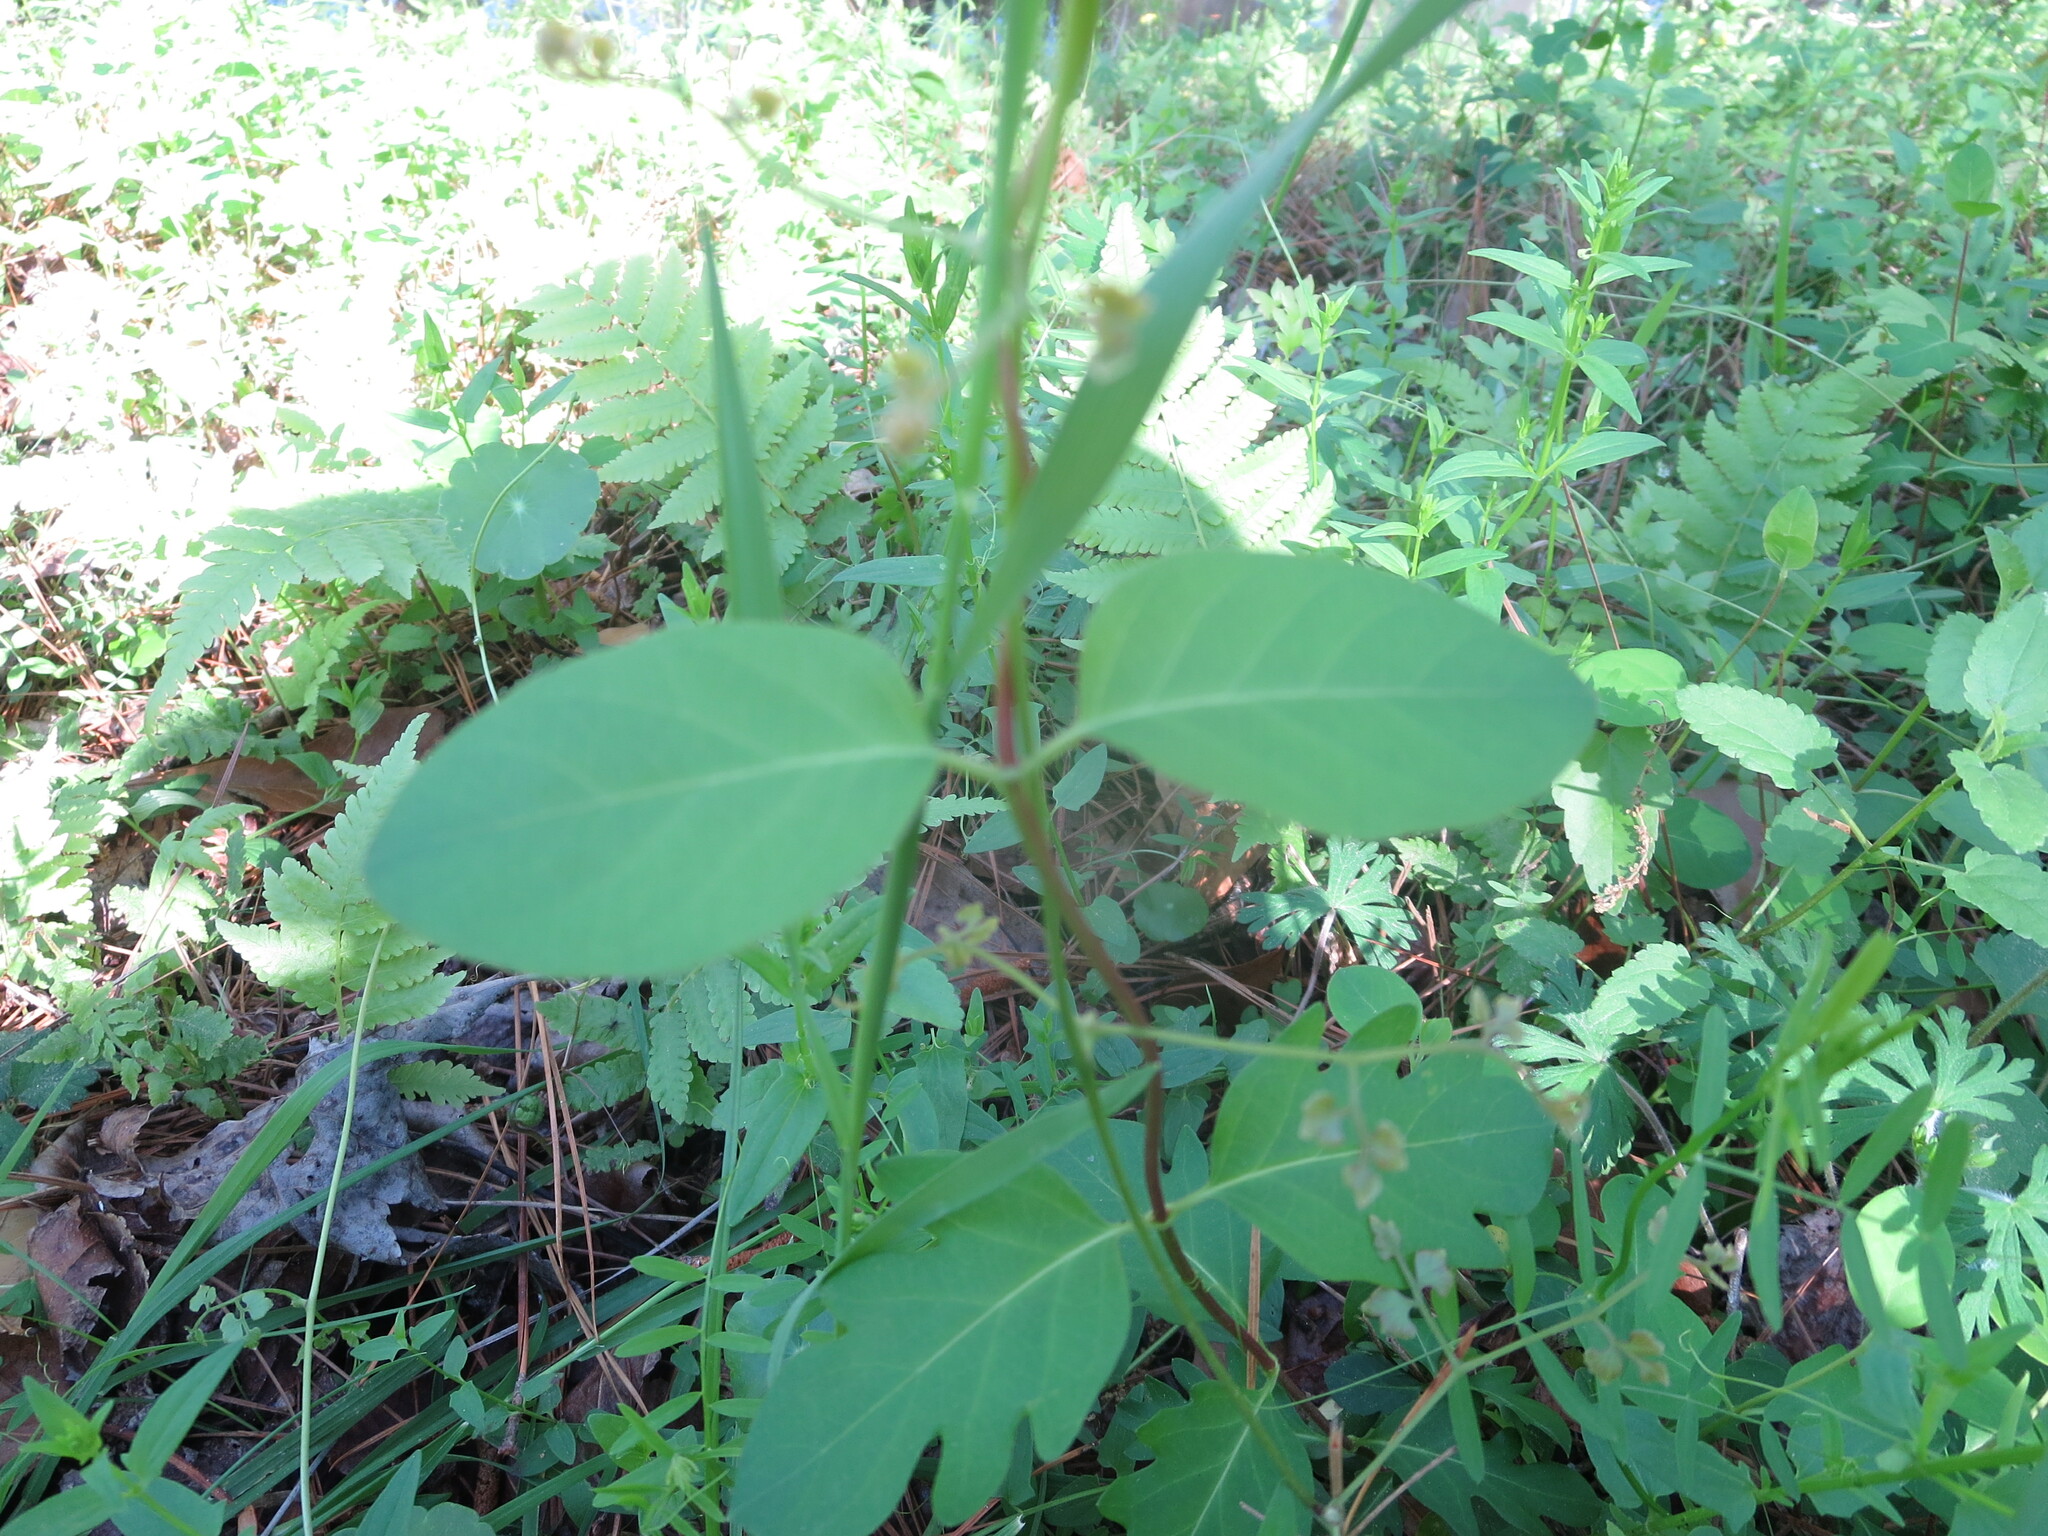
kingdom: Plantae
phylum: Tracheophyta
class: Magnoliopsida
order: Dipsacales
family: Caprifoliaceae
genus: Lonicera
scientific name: Lonicera japonica
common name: Japanese honeysuckle
